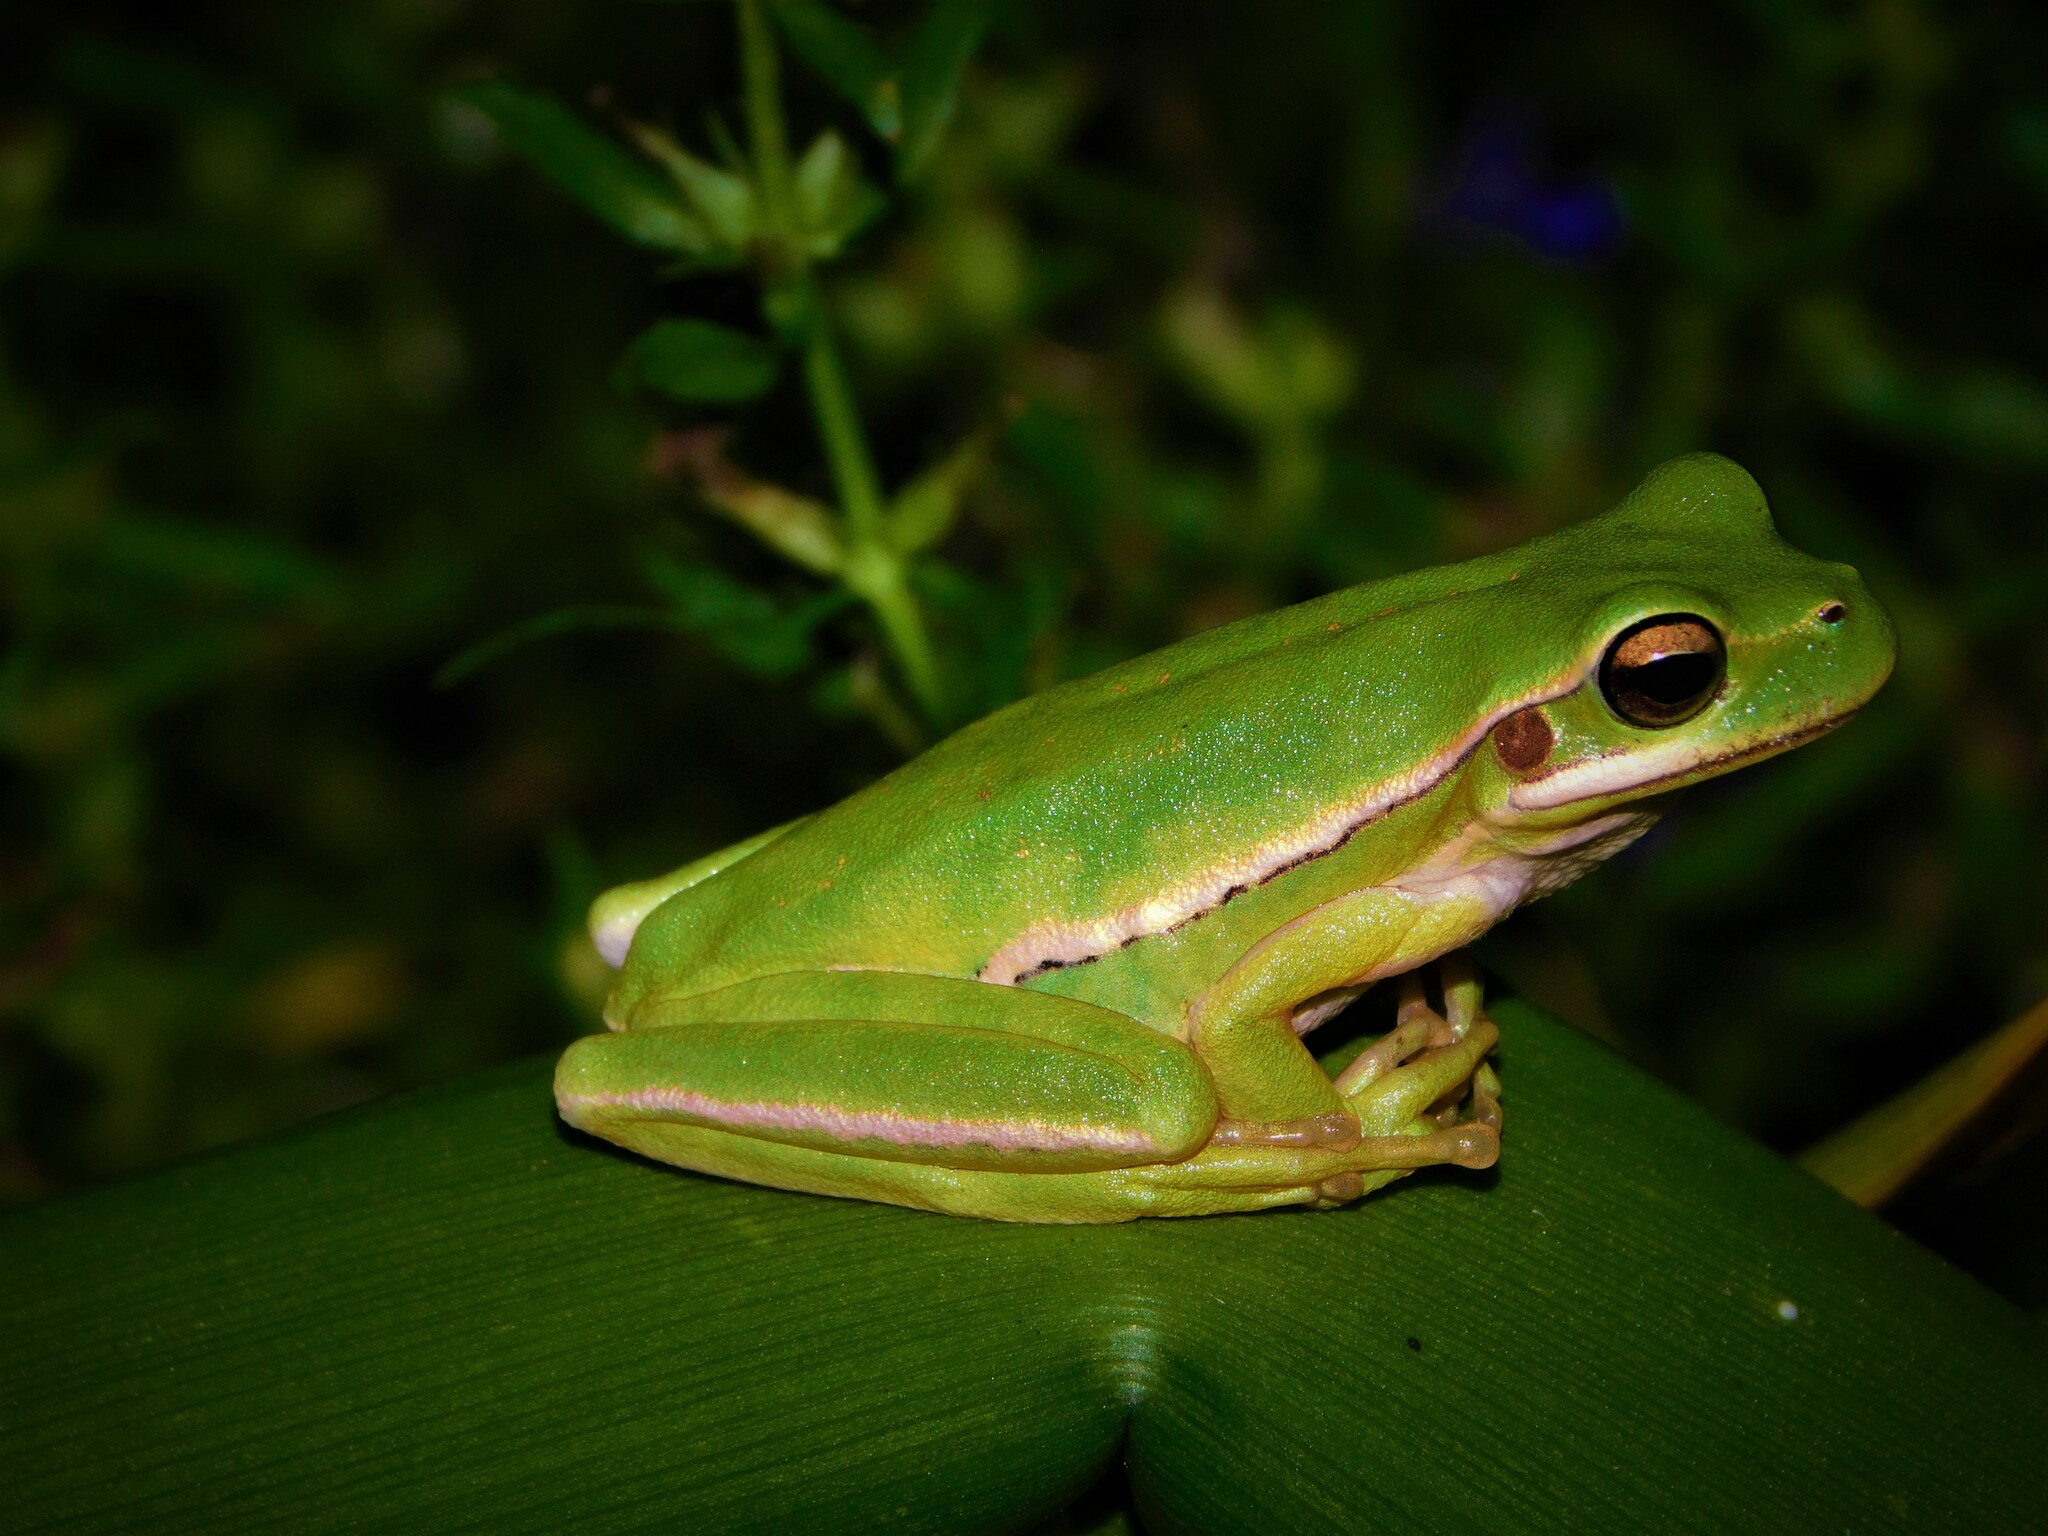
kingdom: Animalia
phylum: Chordata
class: Amphibia
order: Anura
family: Hylidae
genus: Boana
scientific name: Boana pulchella
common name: Montevideo treefrog
